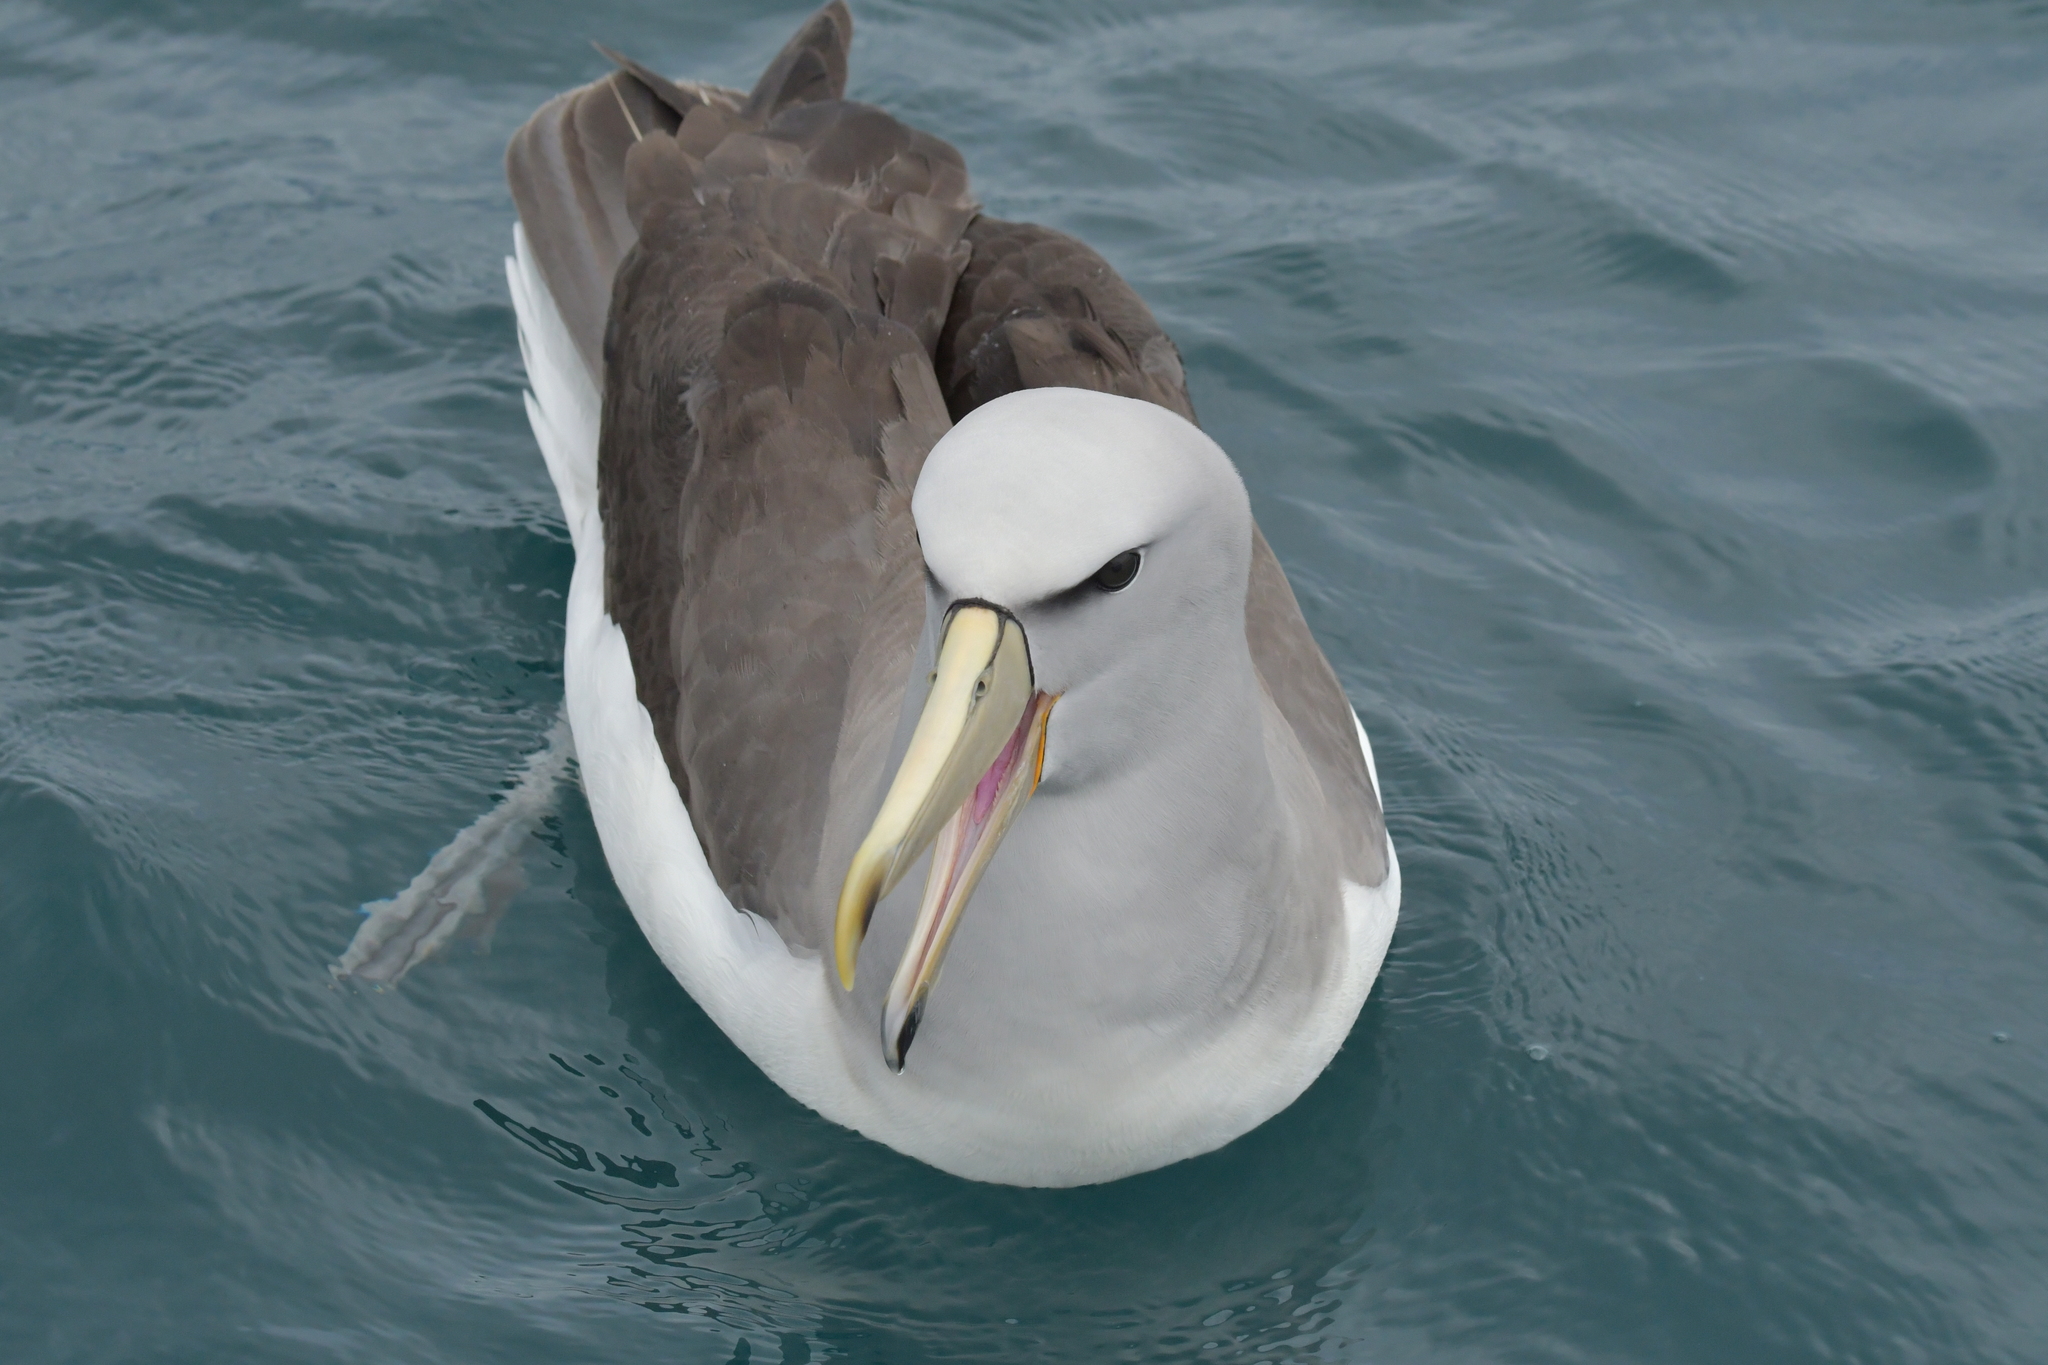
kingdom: Animalia
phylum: Chordata
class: Aves
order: Procellariiformes
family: Diomedeidae
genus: Thalassarche
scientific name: Thalassarche salvini
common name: Salvin's albatross
